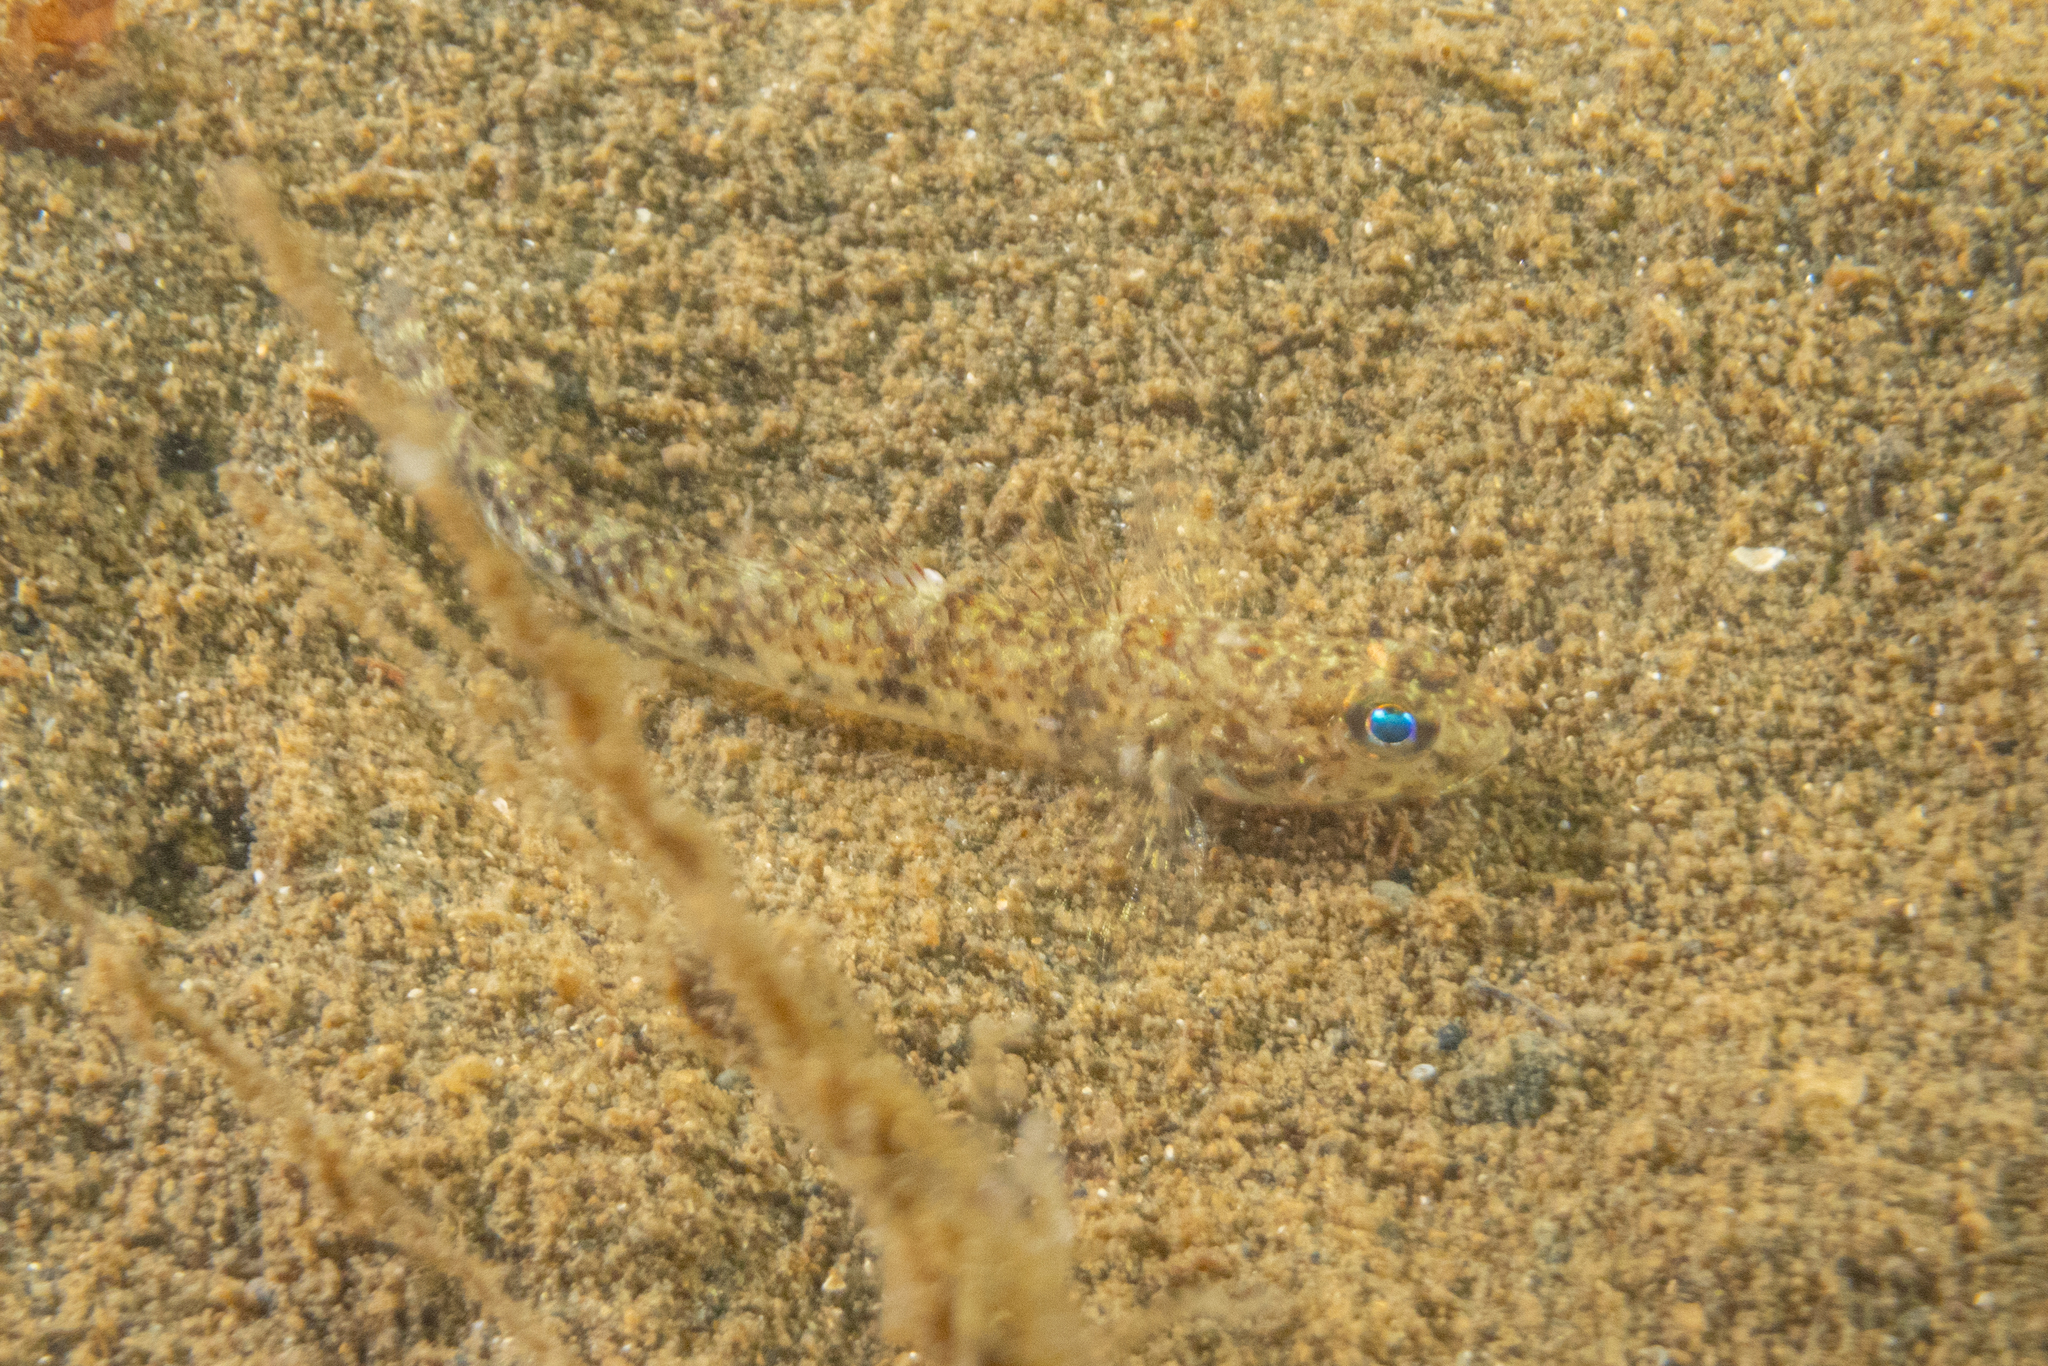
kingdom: Animalia
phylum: Chordata
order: Perciformes
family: Gobiidae
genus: Favonigobius
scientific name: Favonigobius exquisitus
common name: Exquisite sand-goby
